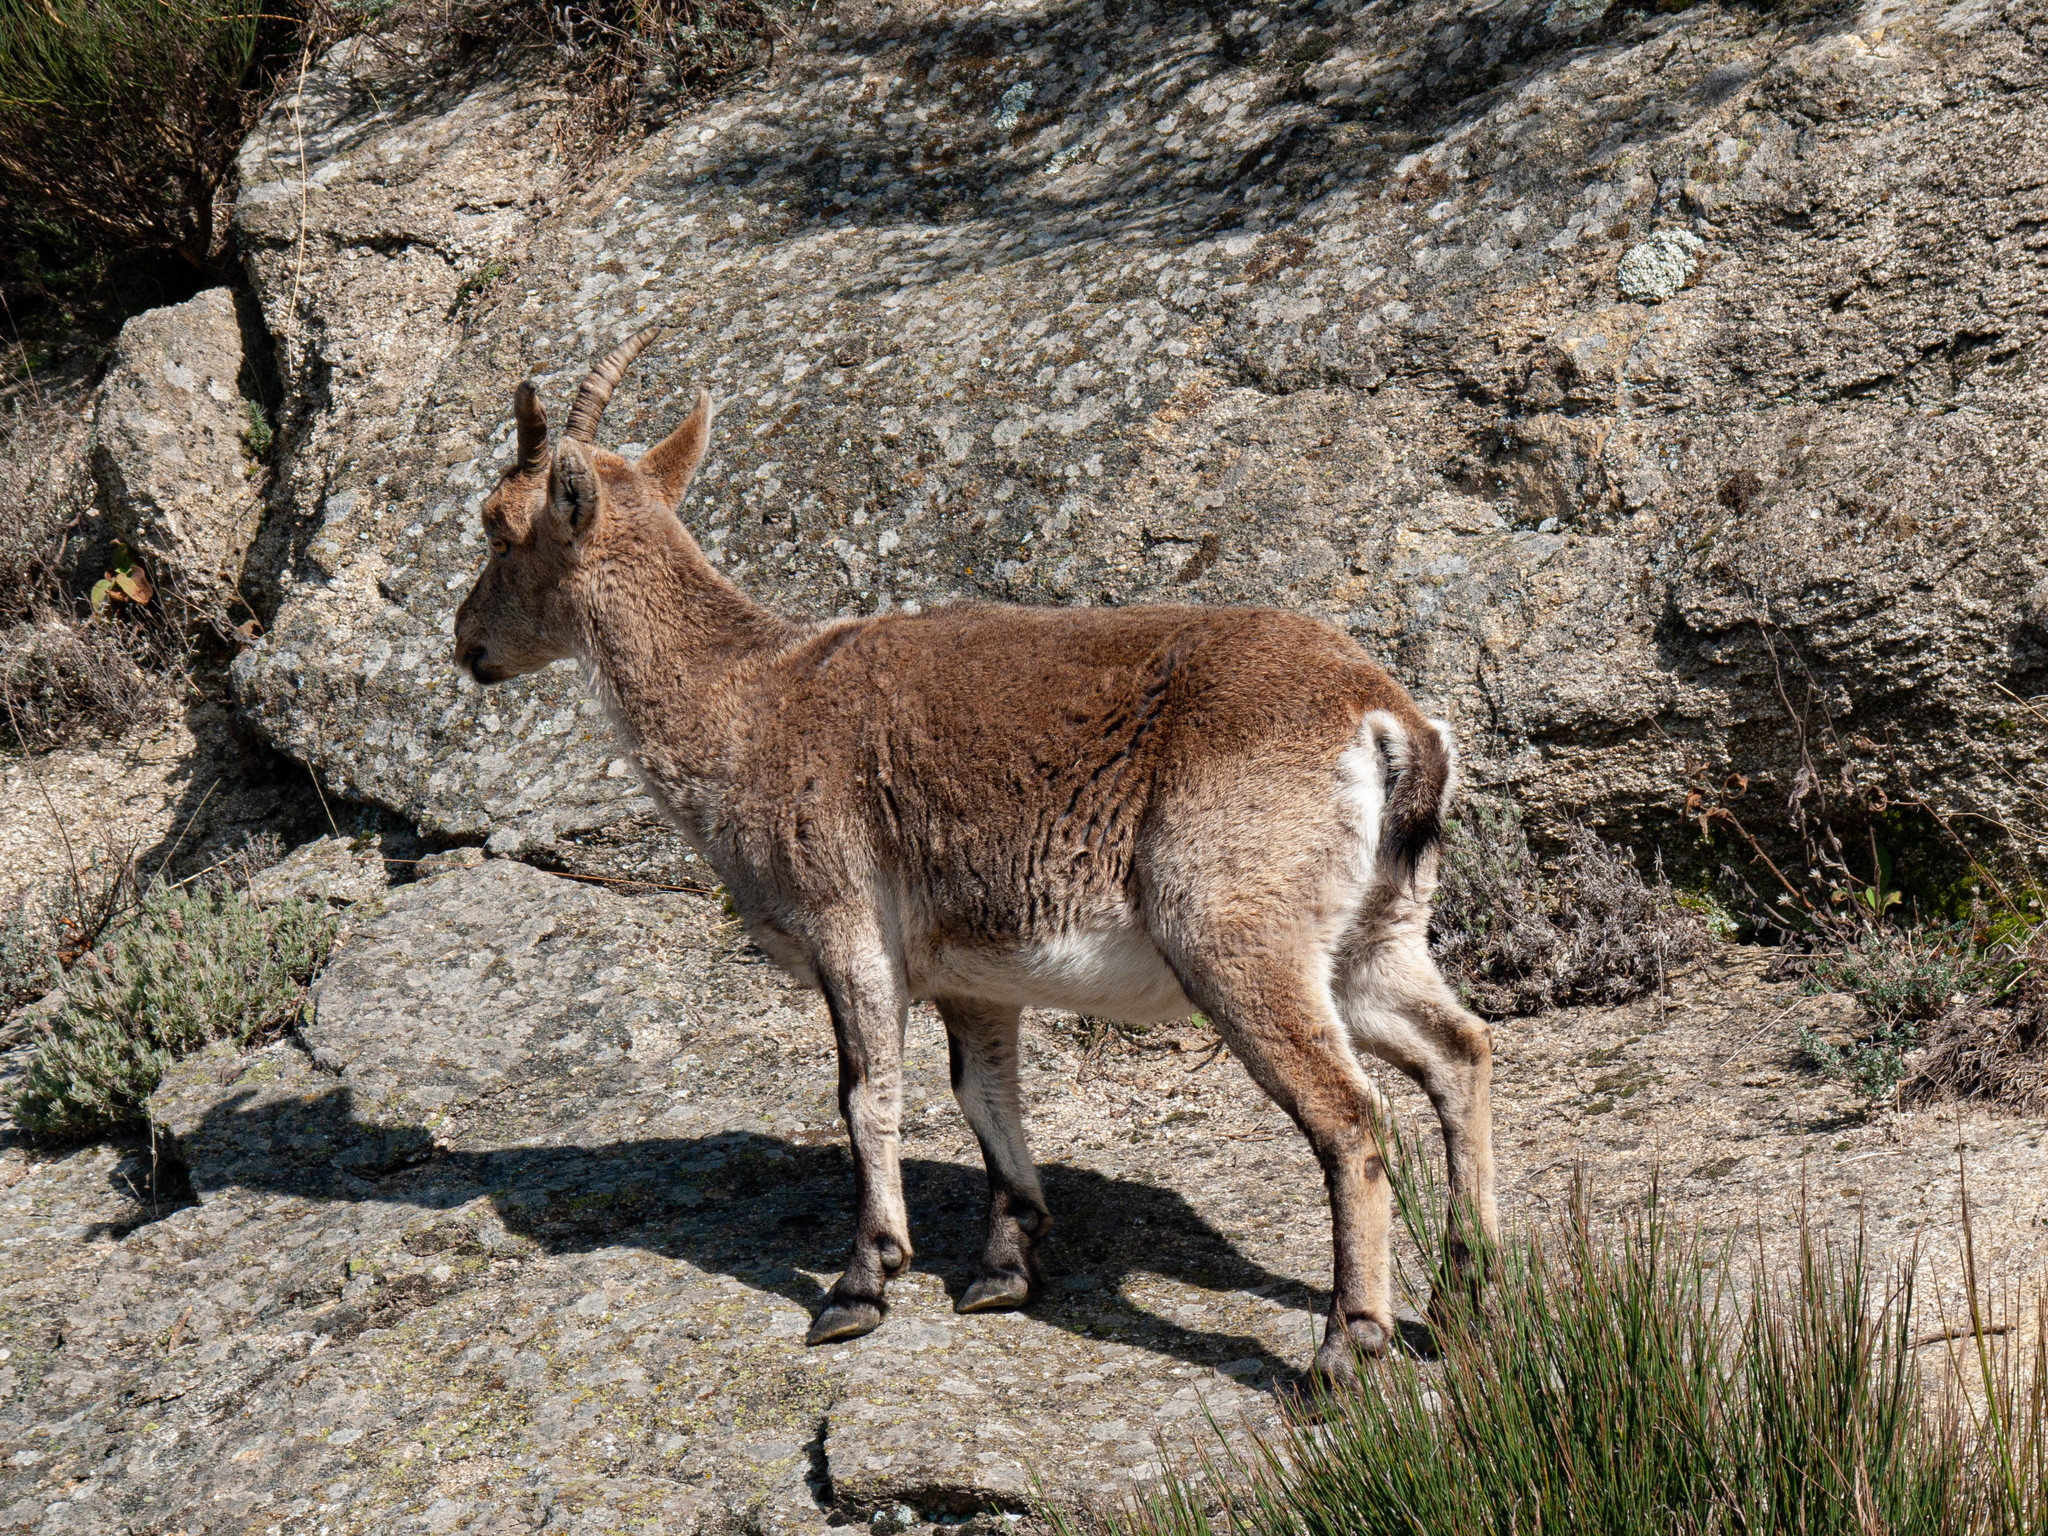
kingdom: Animalia
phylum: Chordata
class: Mammalia
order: Artiodactyla
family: Bovidae
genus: Capra
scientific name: Capra pyrenaica
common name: Spanish ibex
